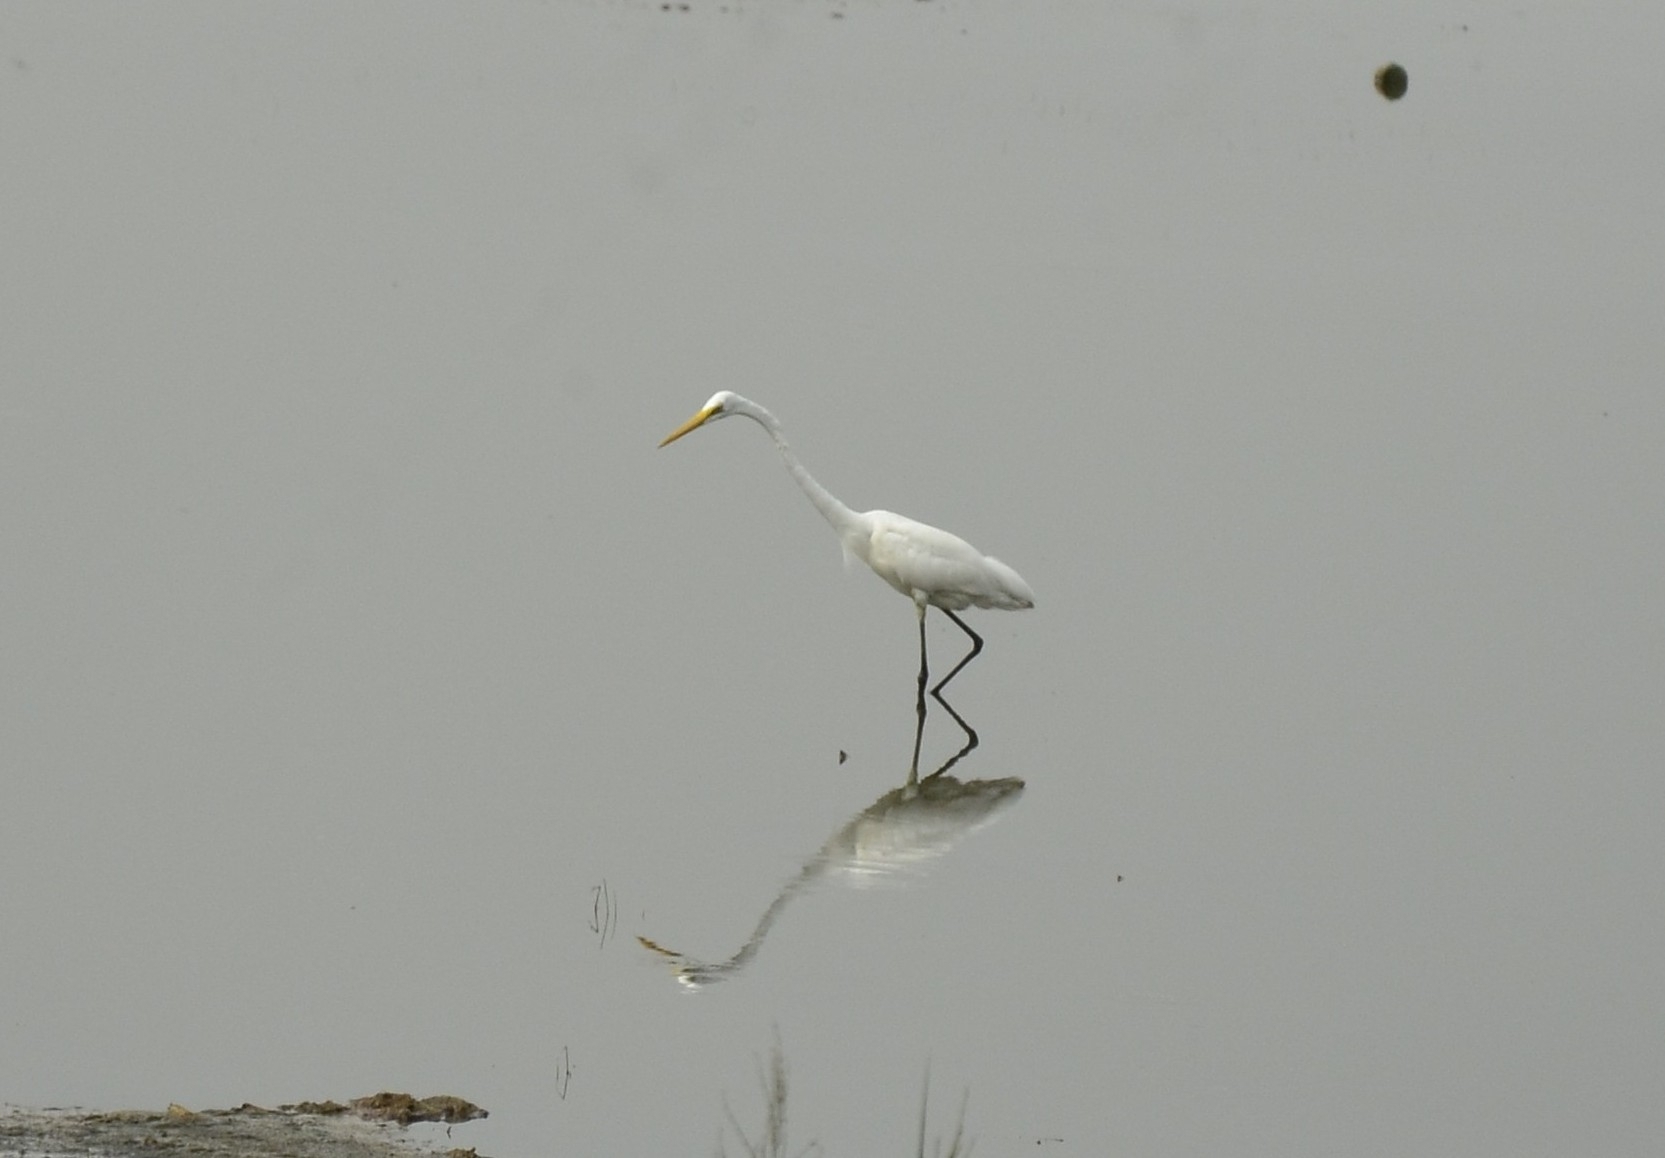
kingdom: Animalia
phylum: Chordata
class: Aves
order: Pelecaniformes
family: Ardeidae
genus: Ardea
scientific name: Ardea alba
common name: Great egret
